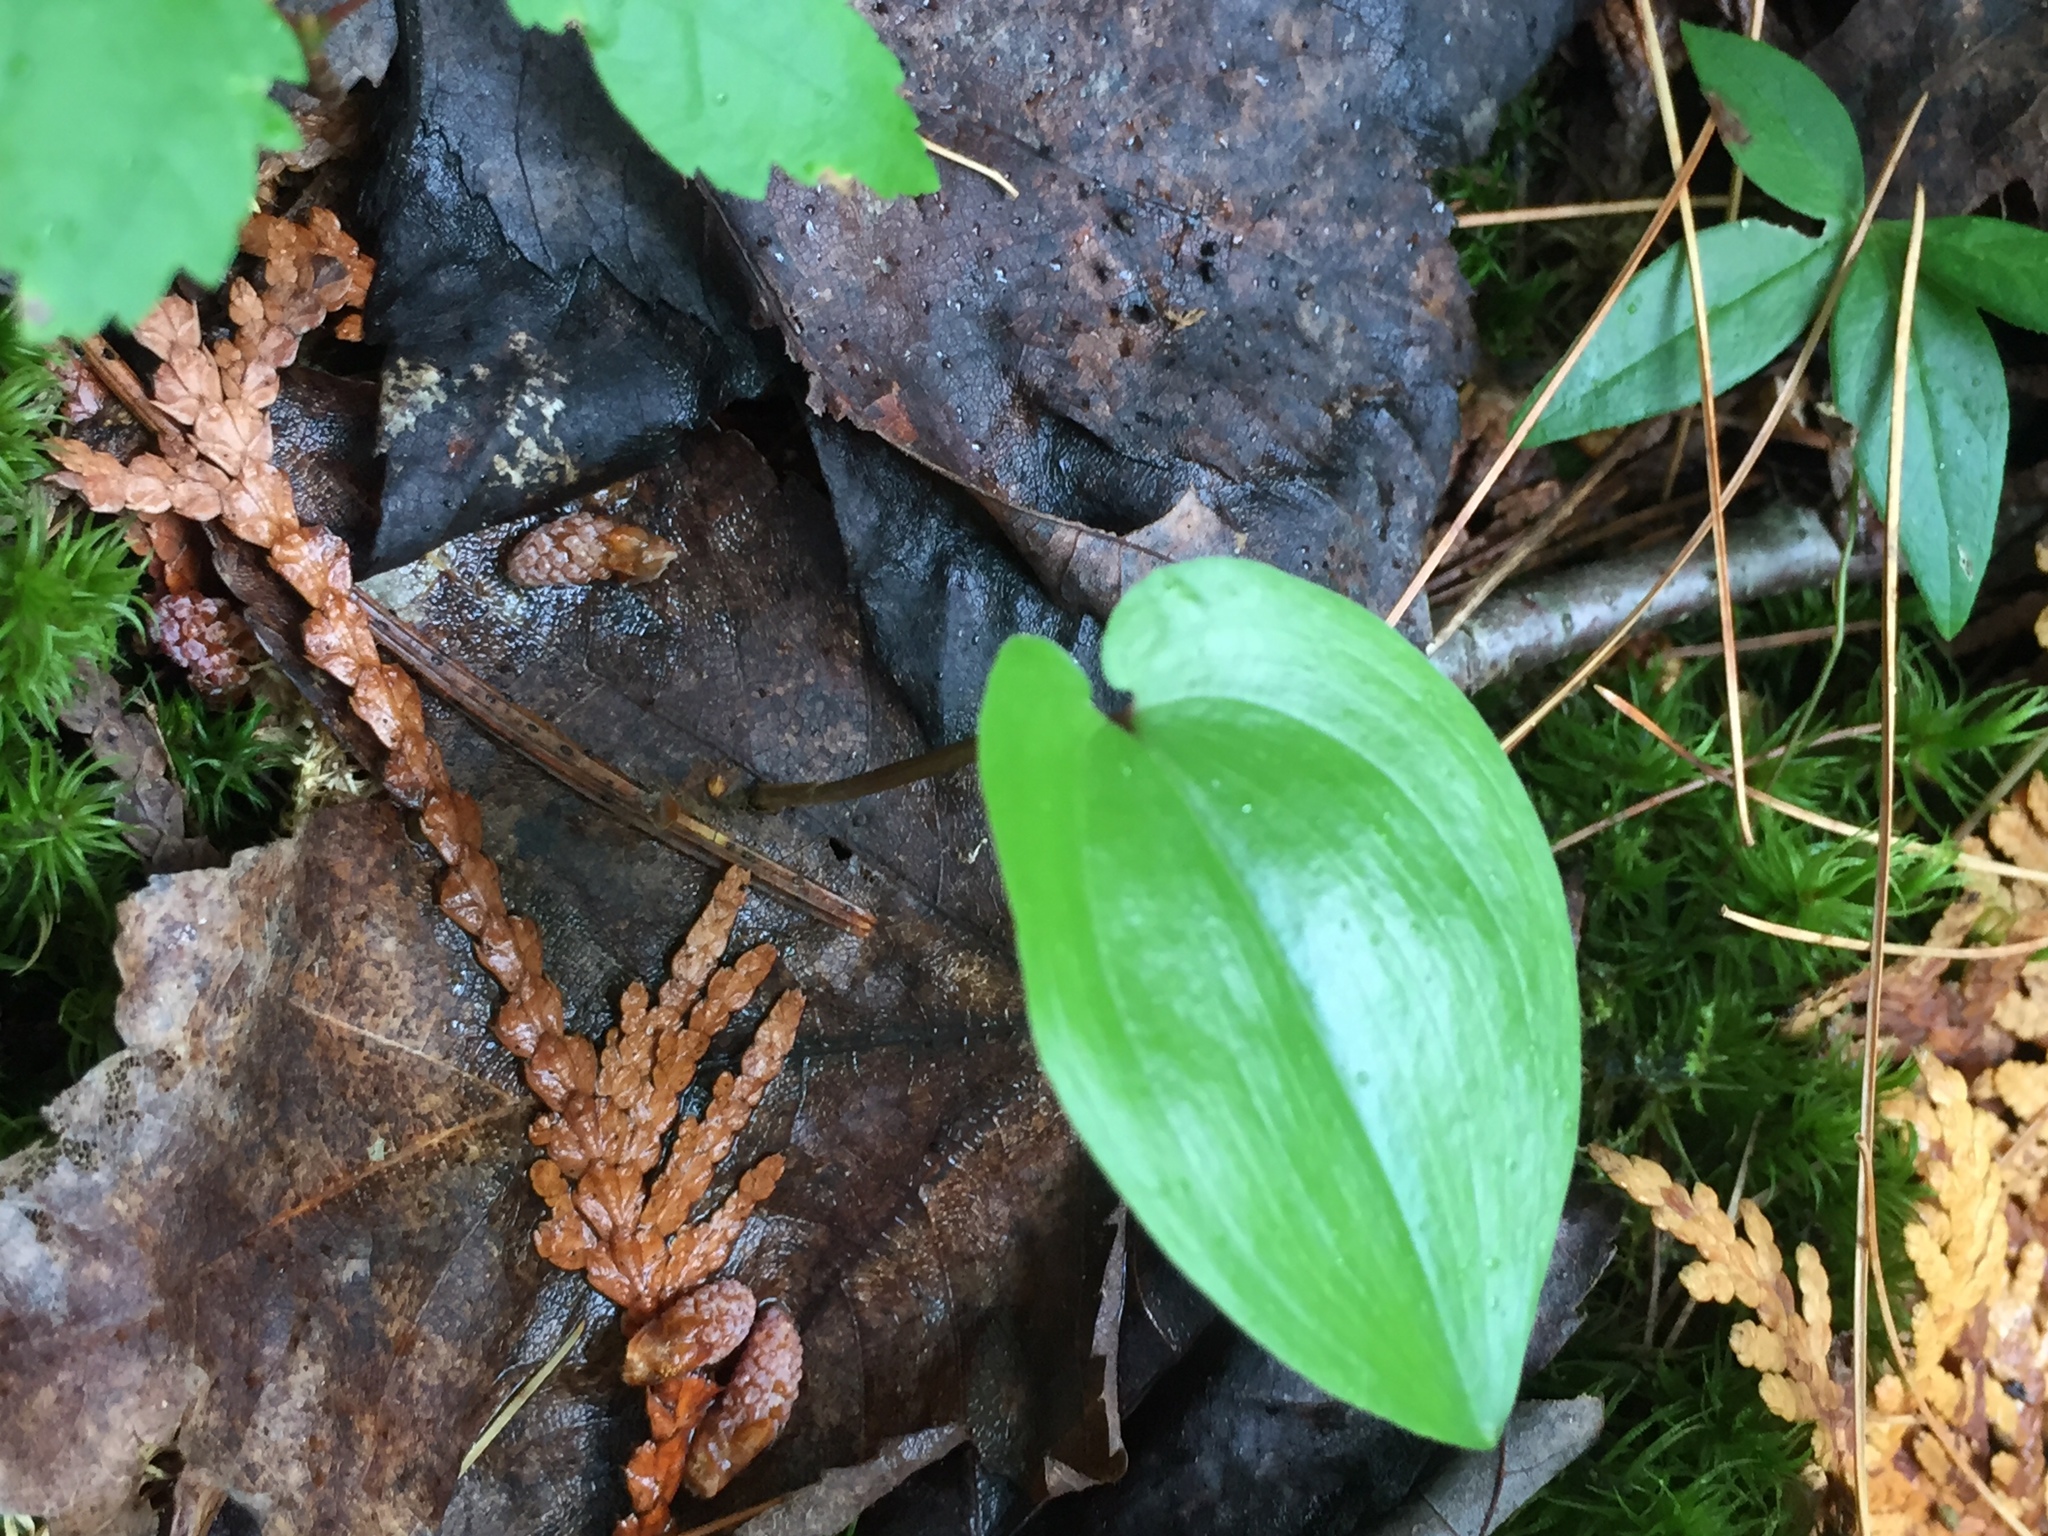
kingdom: Plantae
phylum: Tracheophyta
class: Liliopsida
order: Asparagales
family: Asparagaceae
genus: Maianthemum
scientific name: Maianthemum canadense
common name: False lily-of-the-valley
